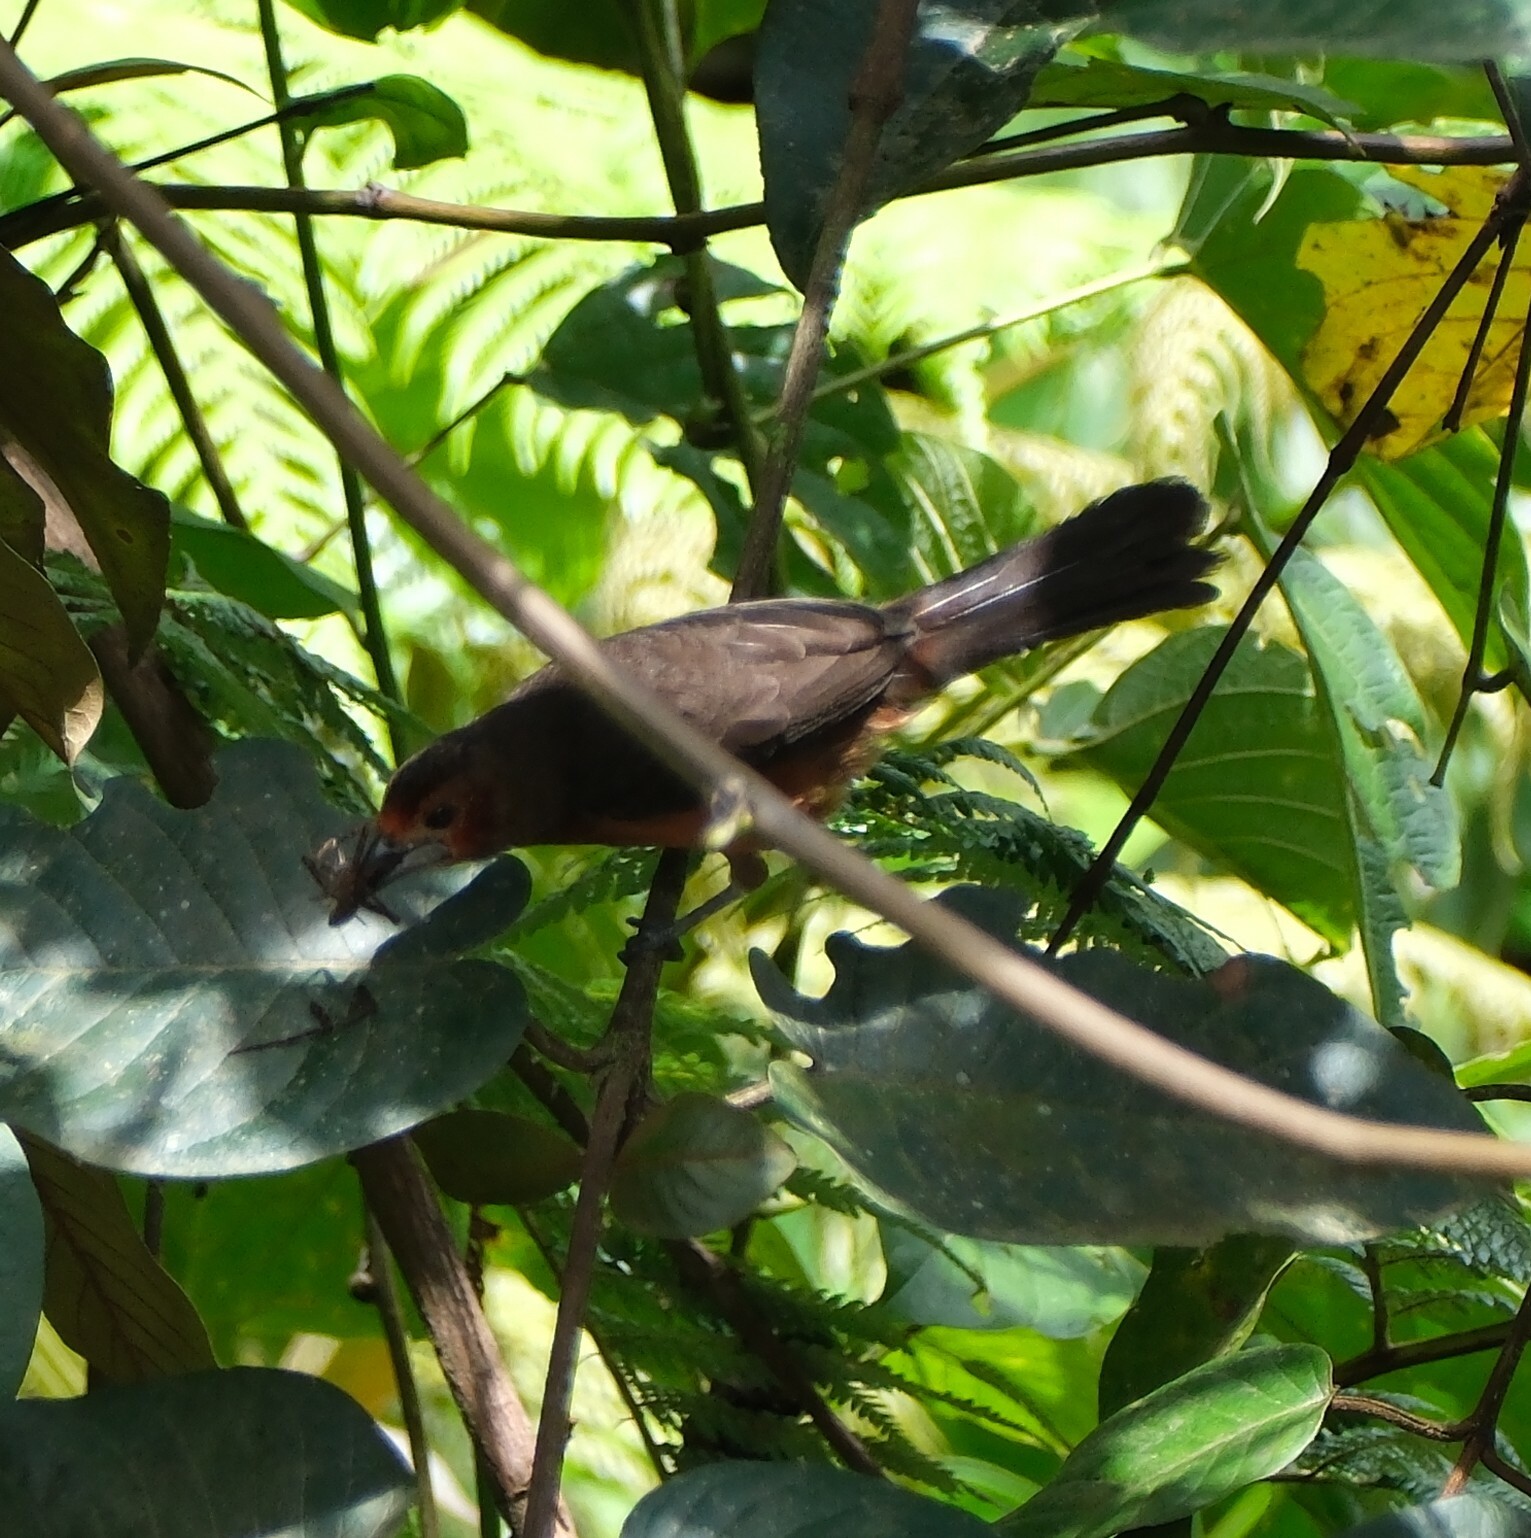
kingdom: Animalia
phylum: Chordata
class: Aves
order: Passeriformes
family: Thraupidae
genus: Ramphocelus
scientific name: Ramphocelus carbo
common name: Silver-beaked tanager
